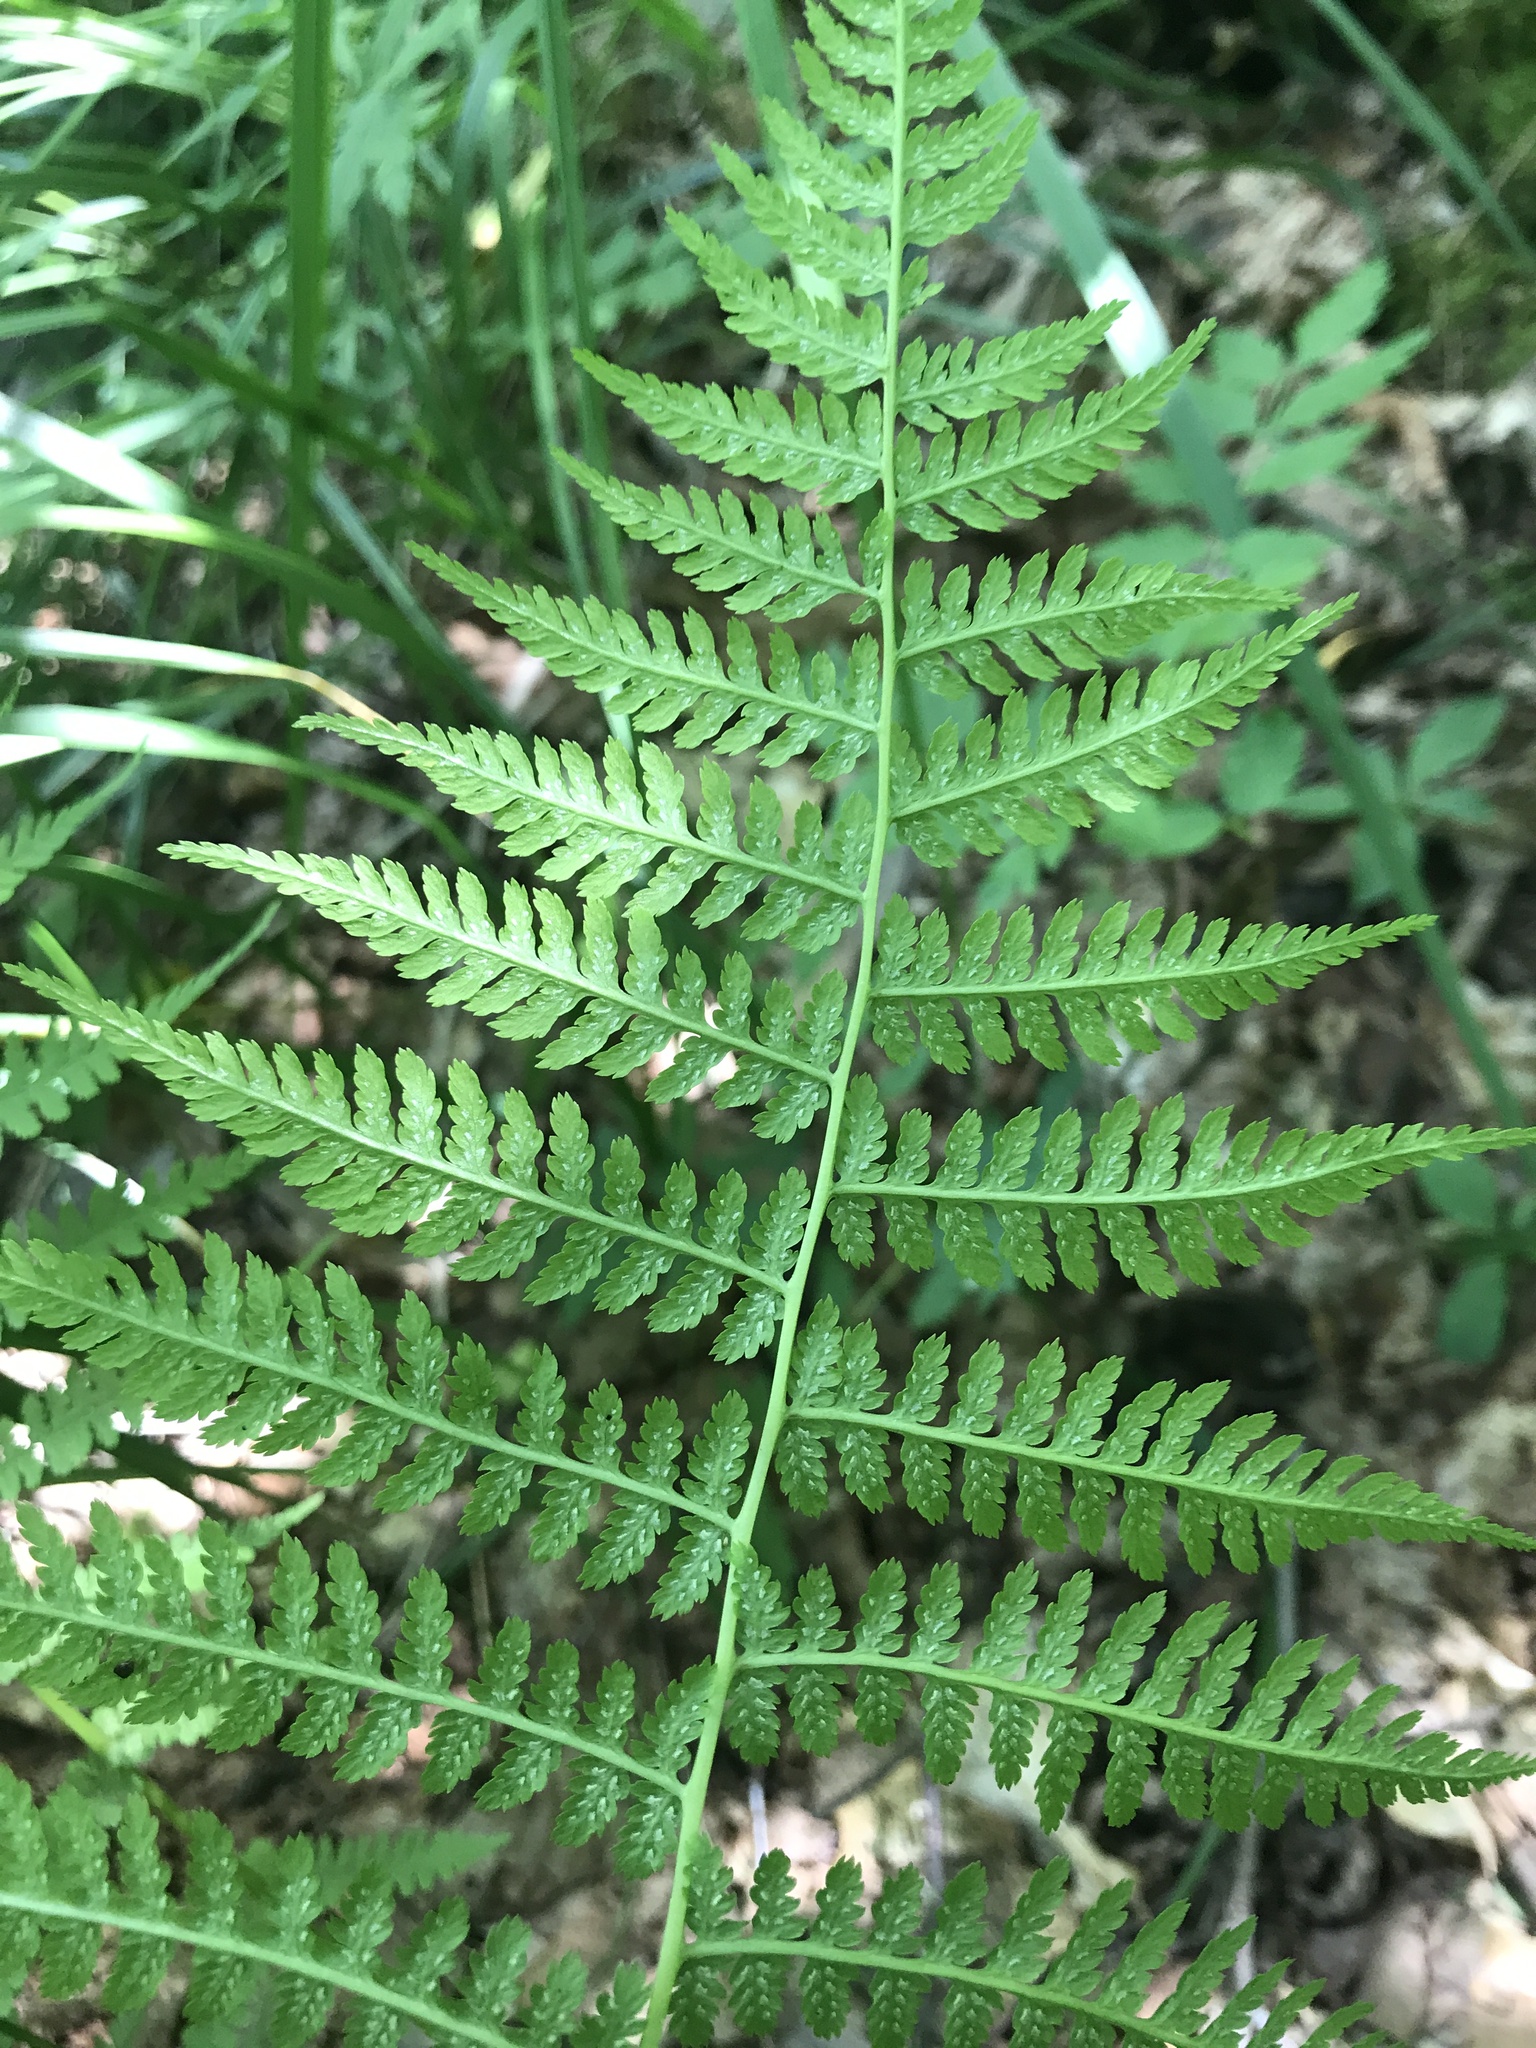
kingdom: Plantae
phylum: Tracheophyta
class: Polypodiopsida
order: Polypodiales
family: Athyriaceae
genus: Athyrium
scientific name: Athyrium filix-femina
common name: Lady fern
